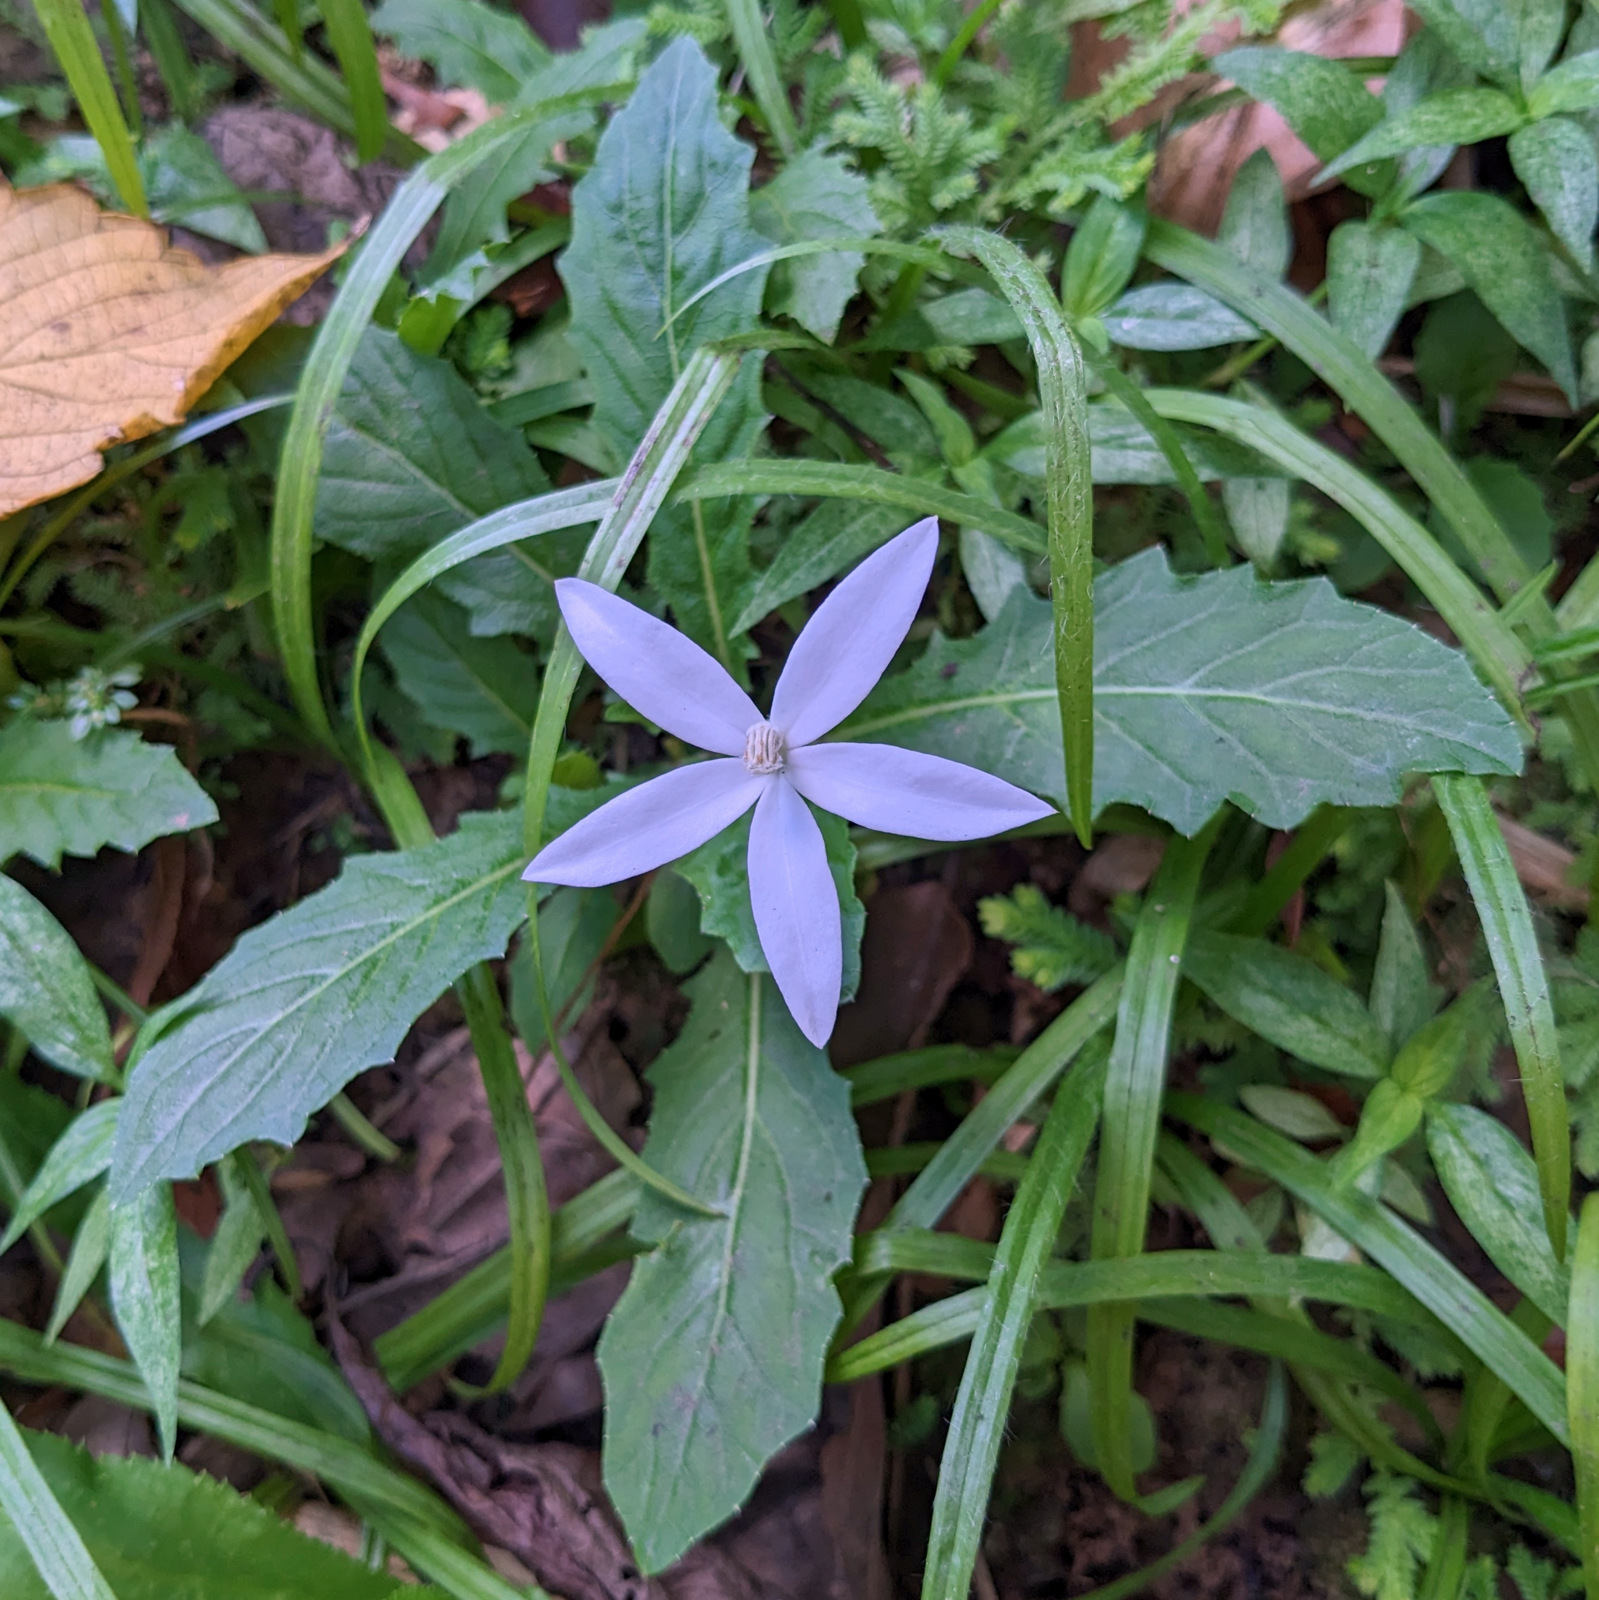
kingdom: Plantae
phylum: Tracheophyta
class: Magnoliopsida
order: Asterales
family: Campanulaceae
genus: Hippobroma
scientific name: Hippobroma longiflora
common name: Madamfate
